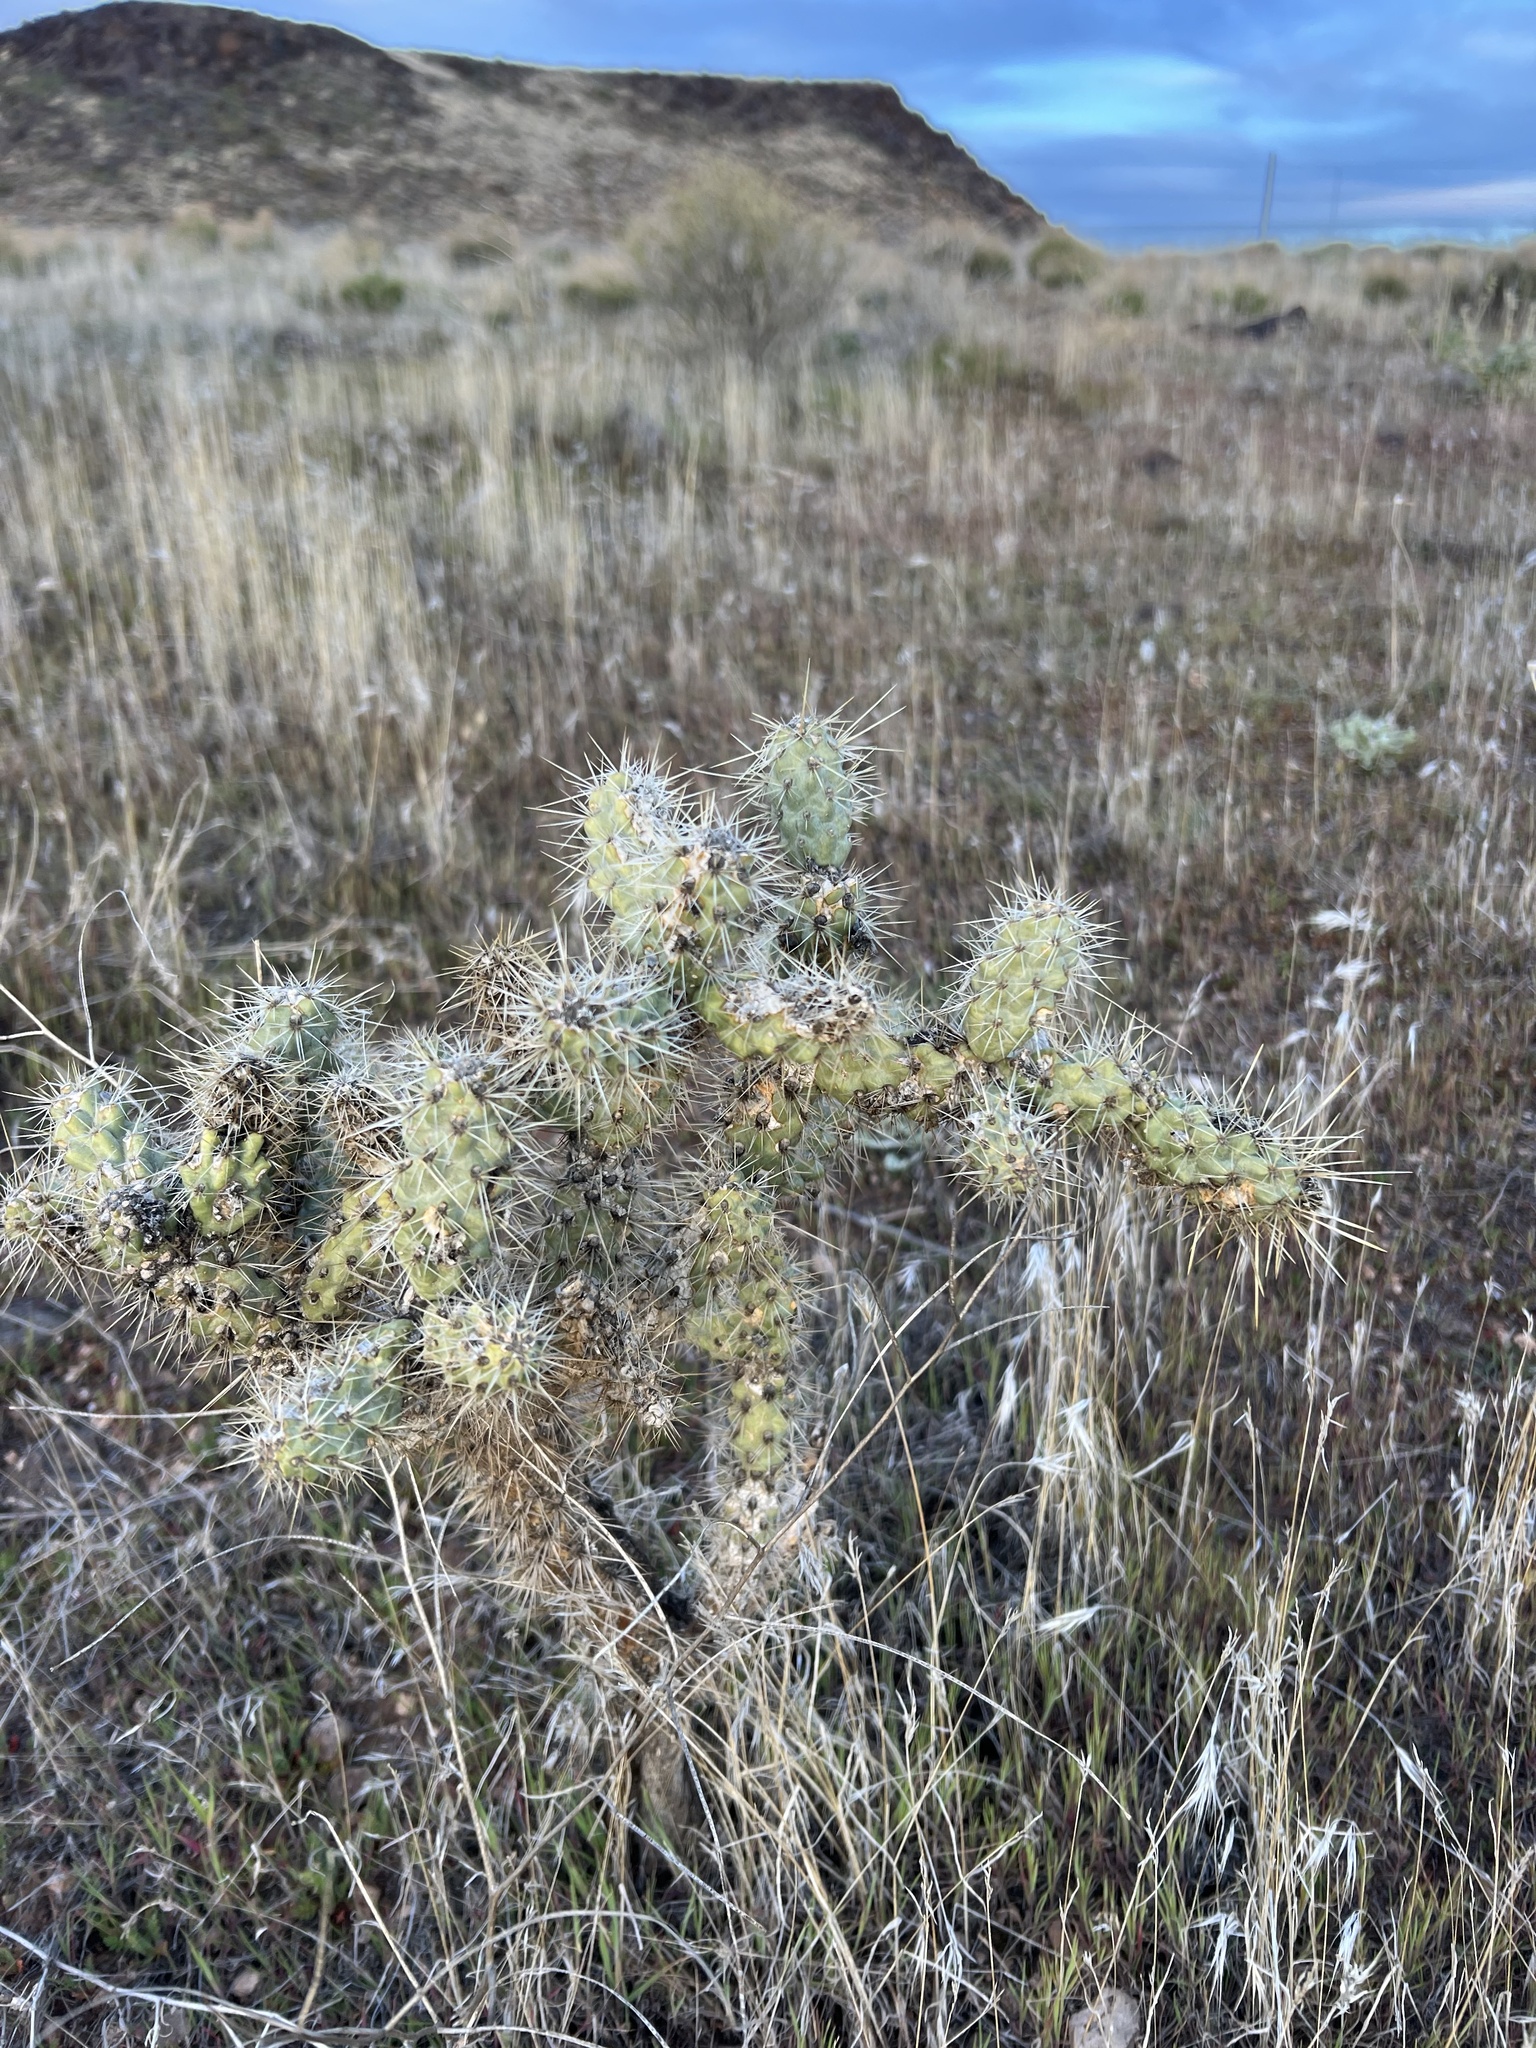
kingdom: Plantae
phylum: Tracheophyta
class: Magnoliopsida
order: Caryophyllales
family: Cactaceae
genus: Cylindropuntia
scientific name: Cylindropuntia echinocarpa
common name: Ground cholla
